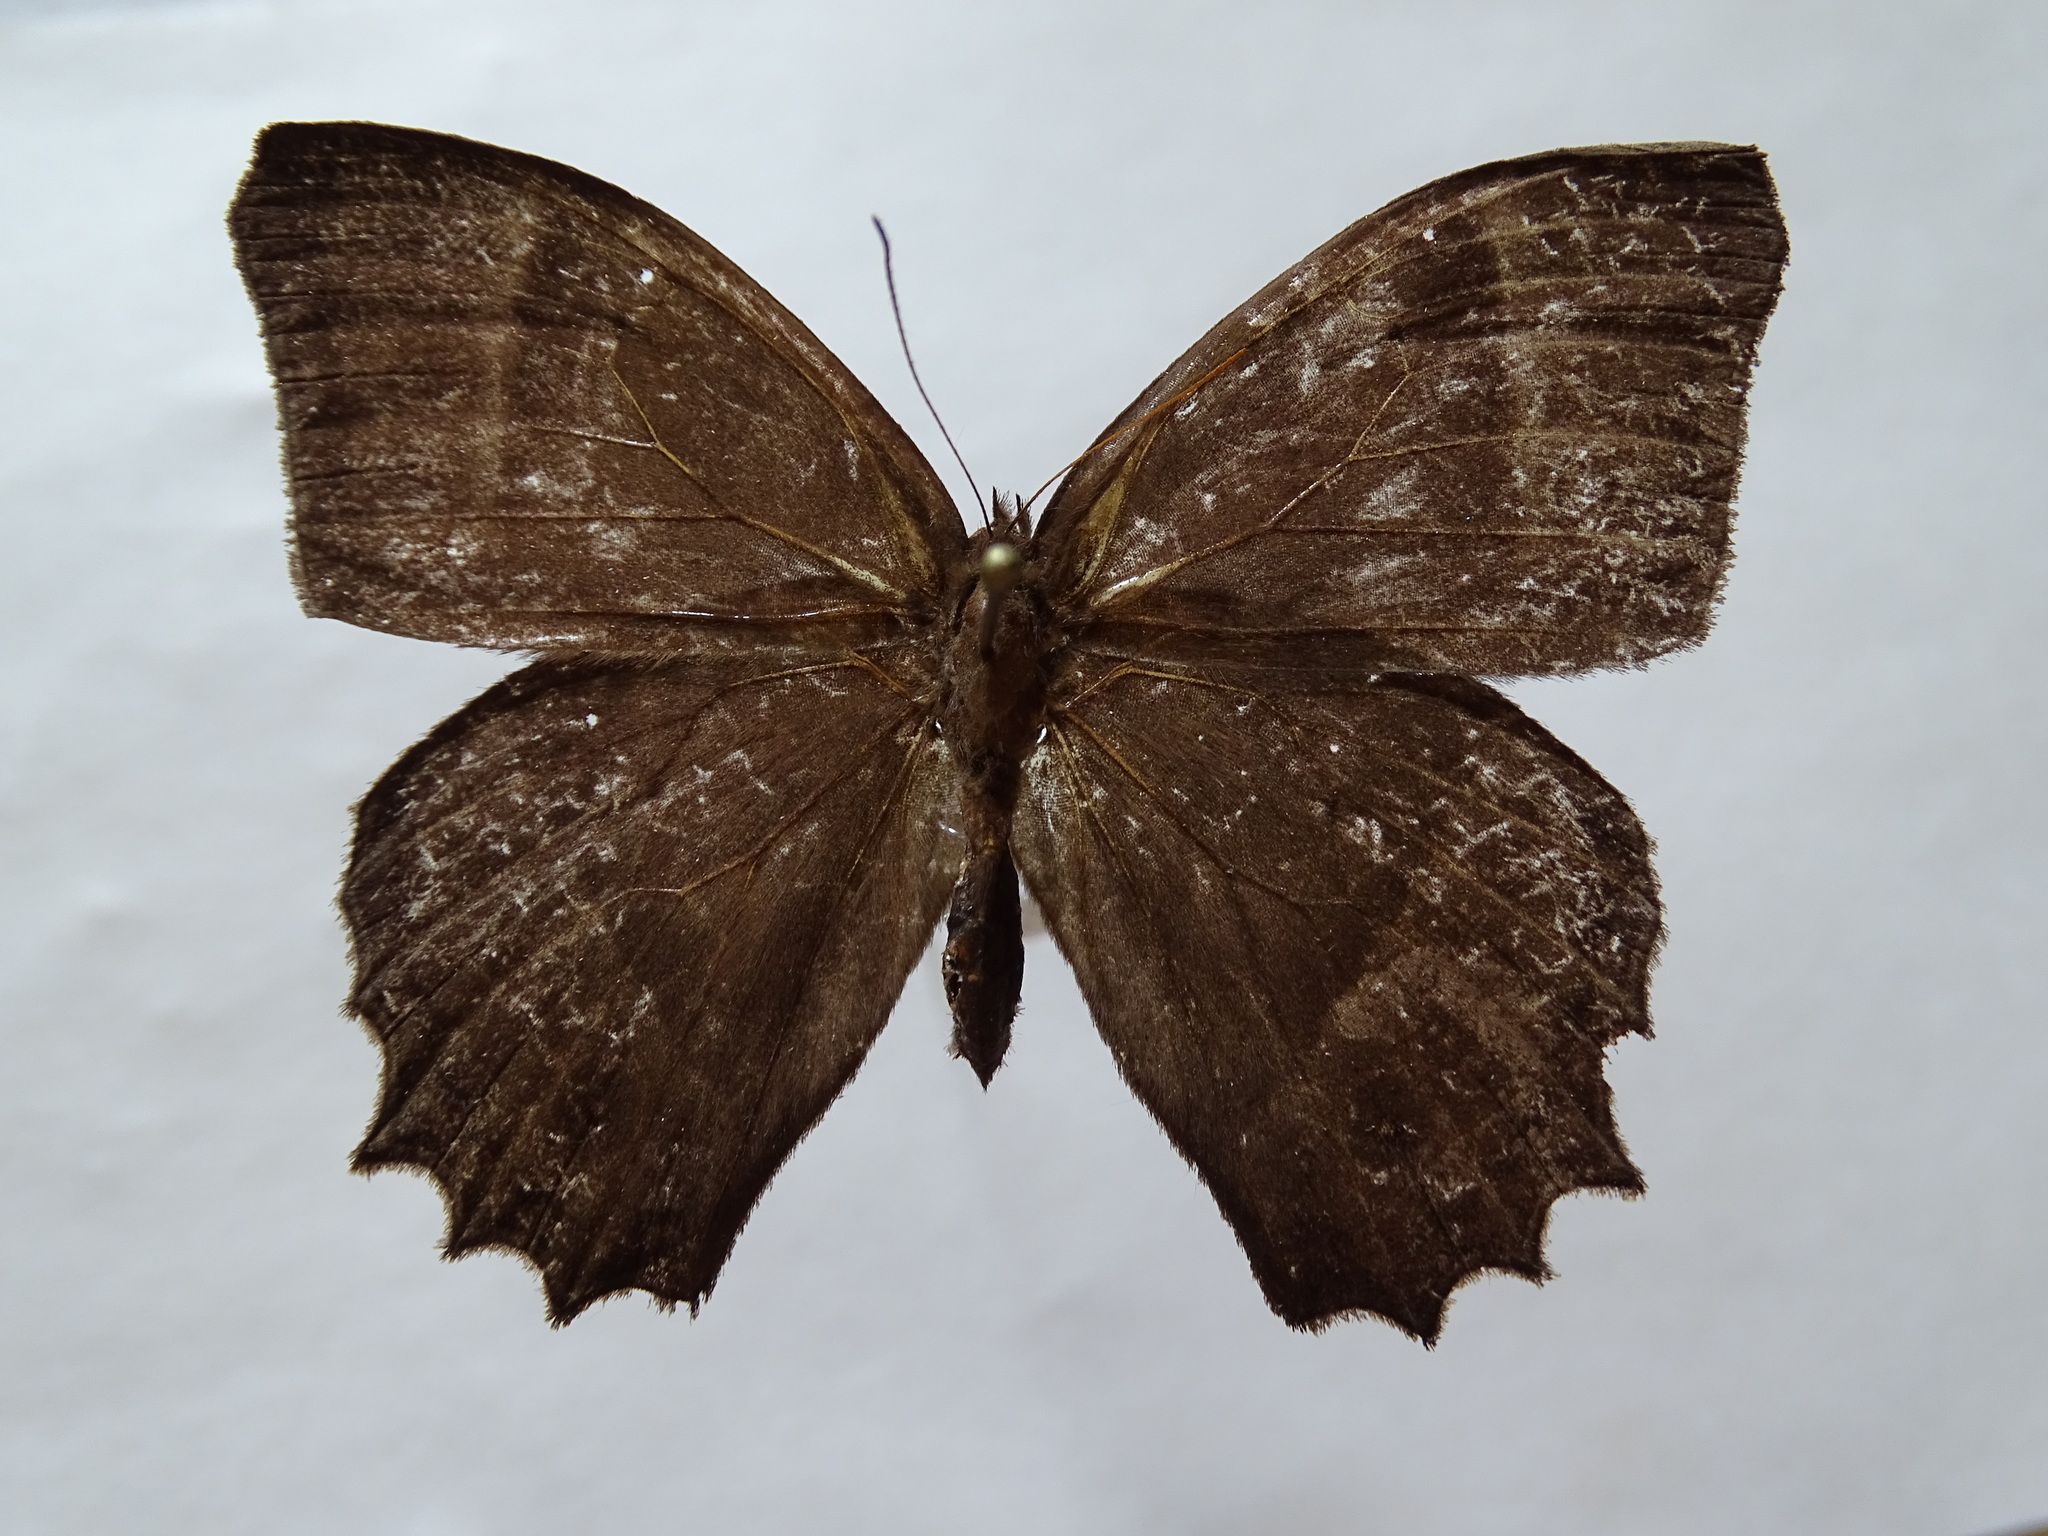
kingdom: Animalia
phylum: Arthropoda
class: Insecta
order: Lepidoptera
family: Nymphalidae
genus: Taygetis
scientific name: Taygetis inconspicua
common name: Inconspicuous satyr
